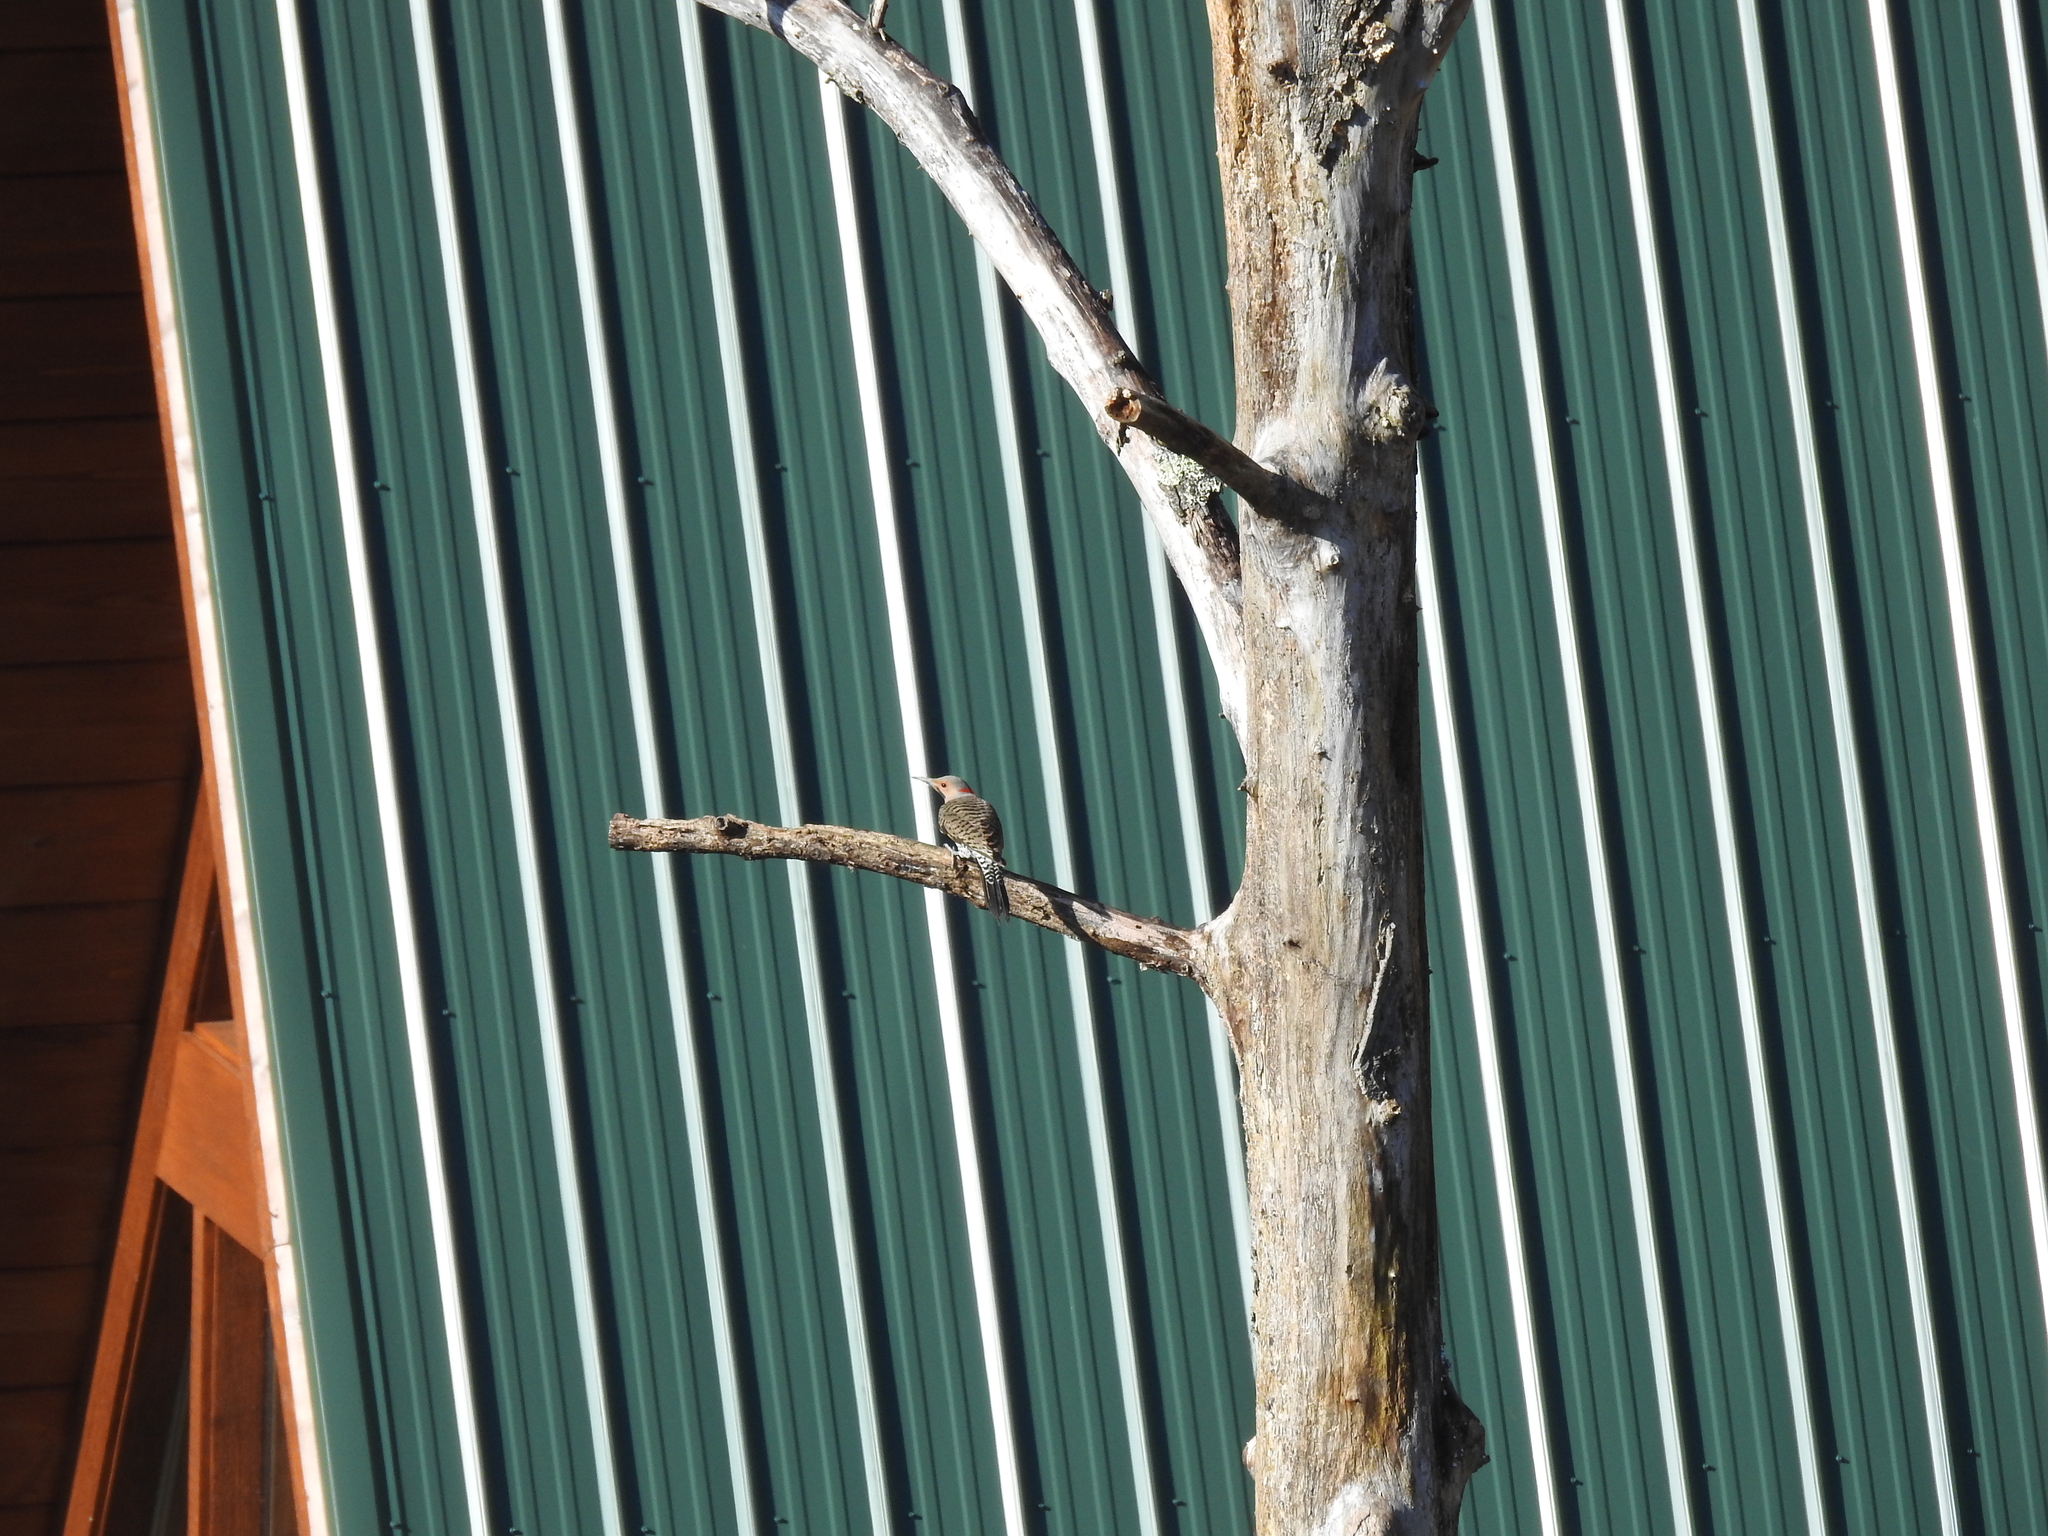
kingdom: Animalia
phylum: Chordata
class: Aves
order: Piciformes
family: Picidae
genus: Colaptes
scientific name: Colaptes auratus
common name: Northern flicker
